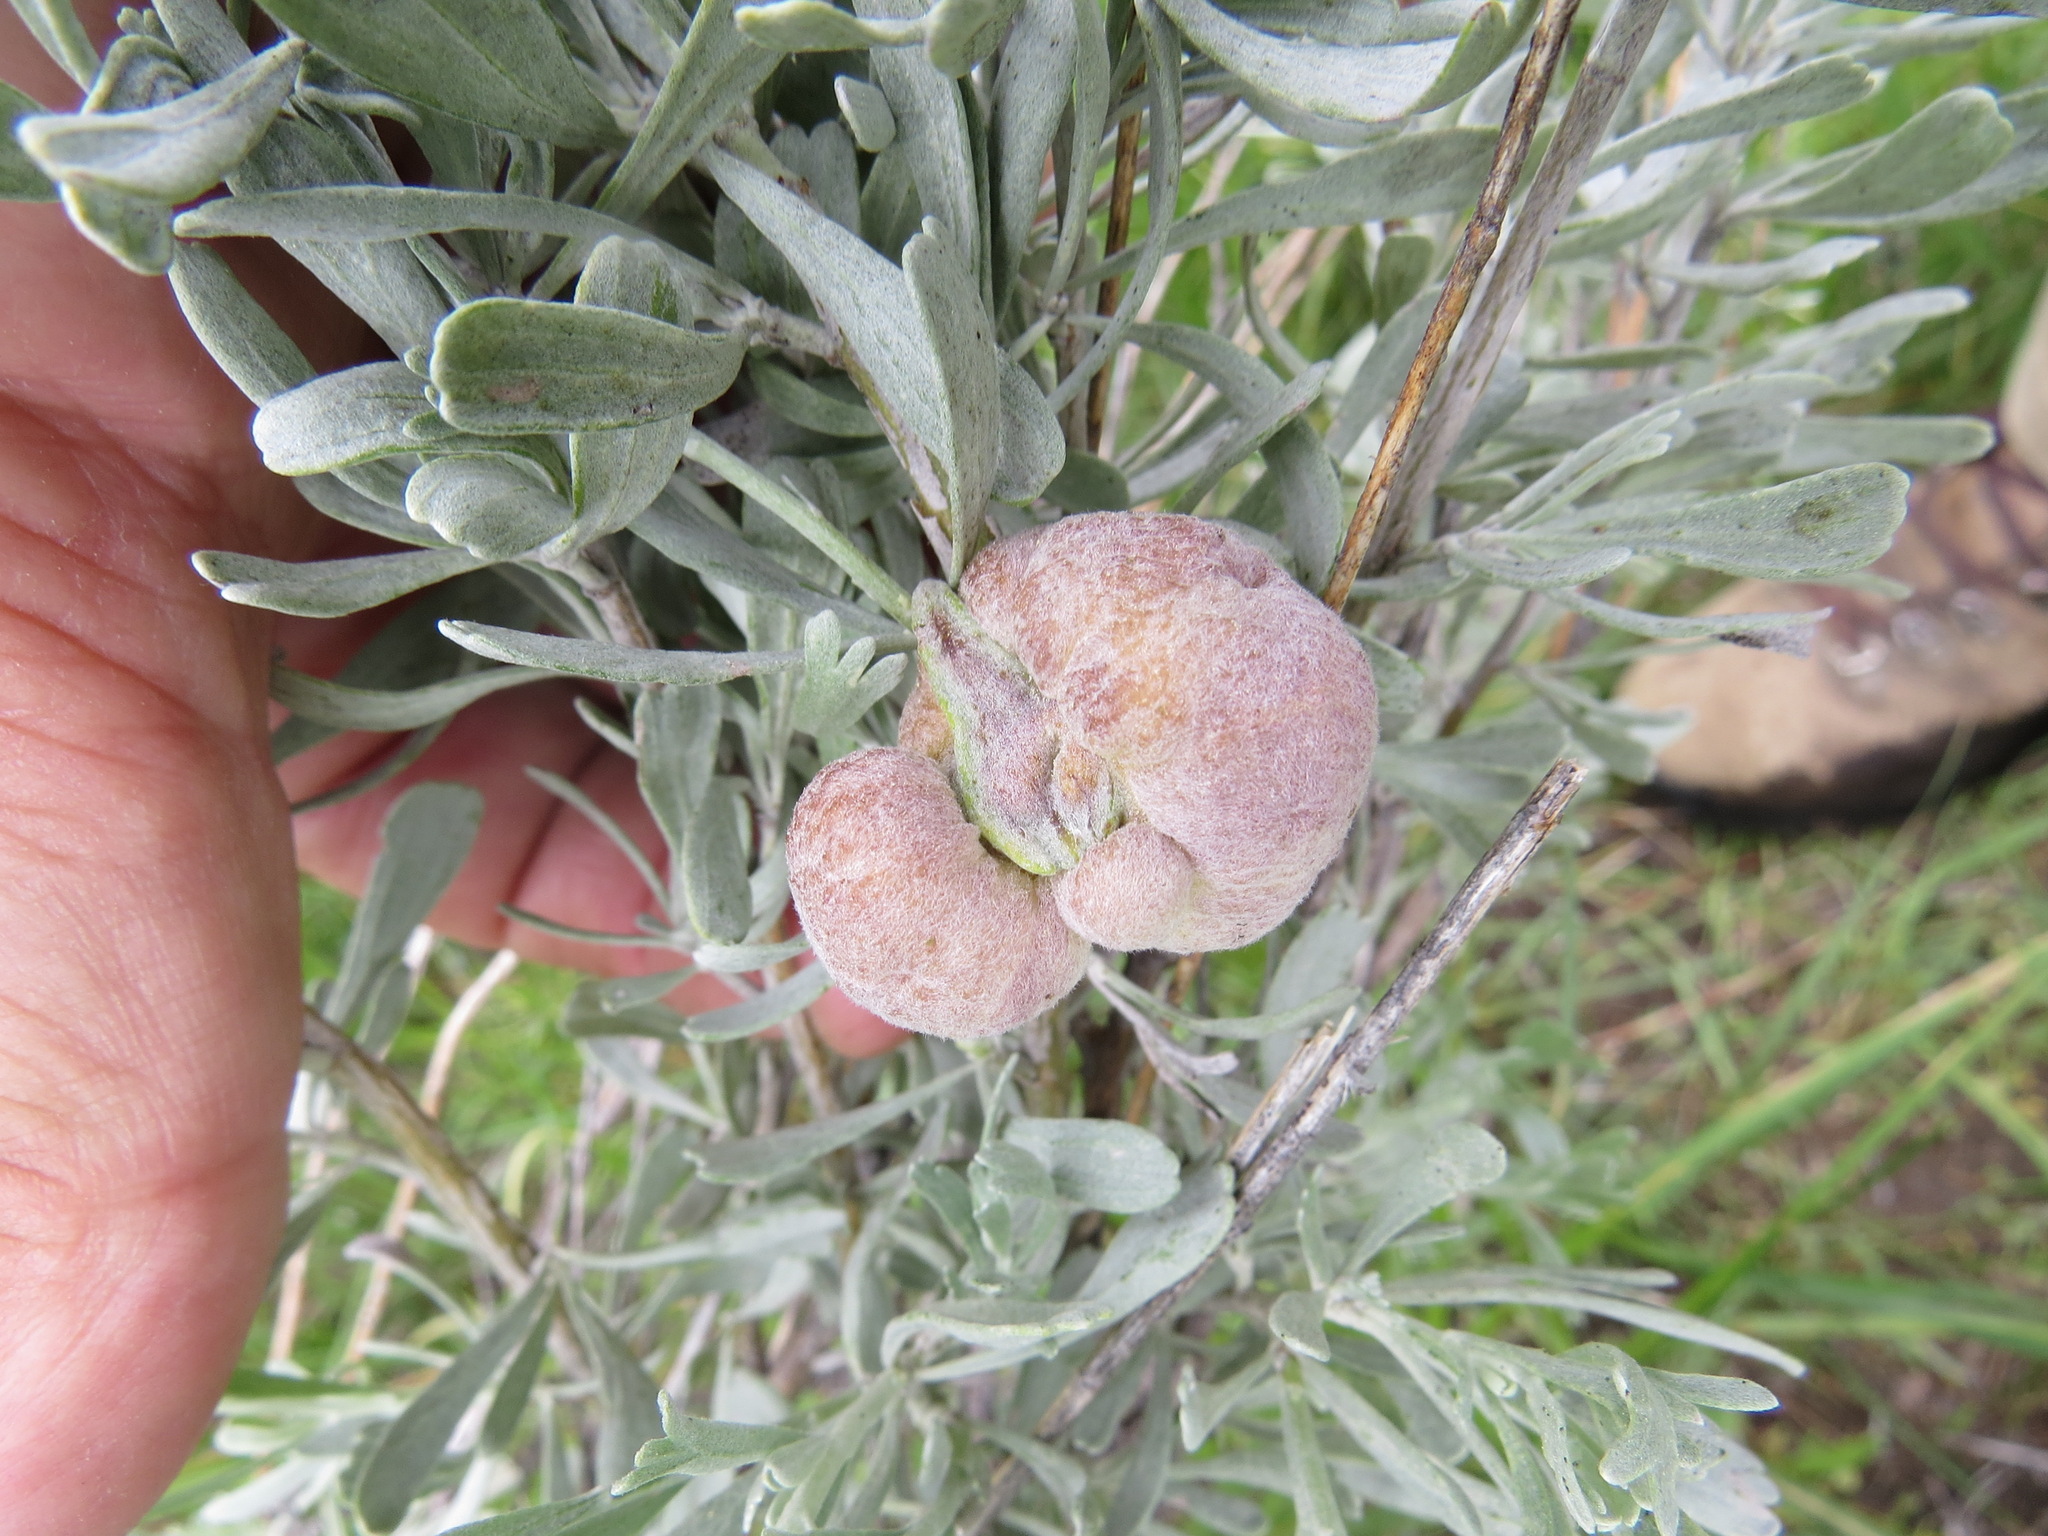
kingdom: Animalia
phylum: Arthropoda
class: Insecta
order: Diptera
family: Cecidomyiidae
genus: Rhopalomyia
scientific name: Rhopalomyia pomum
